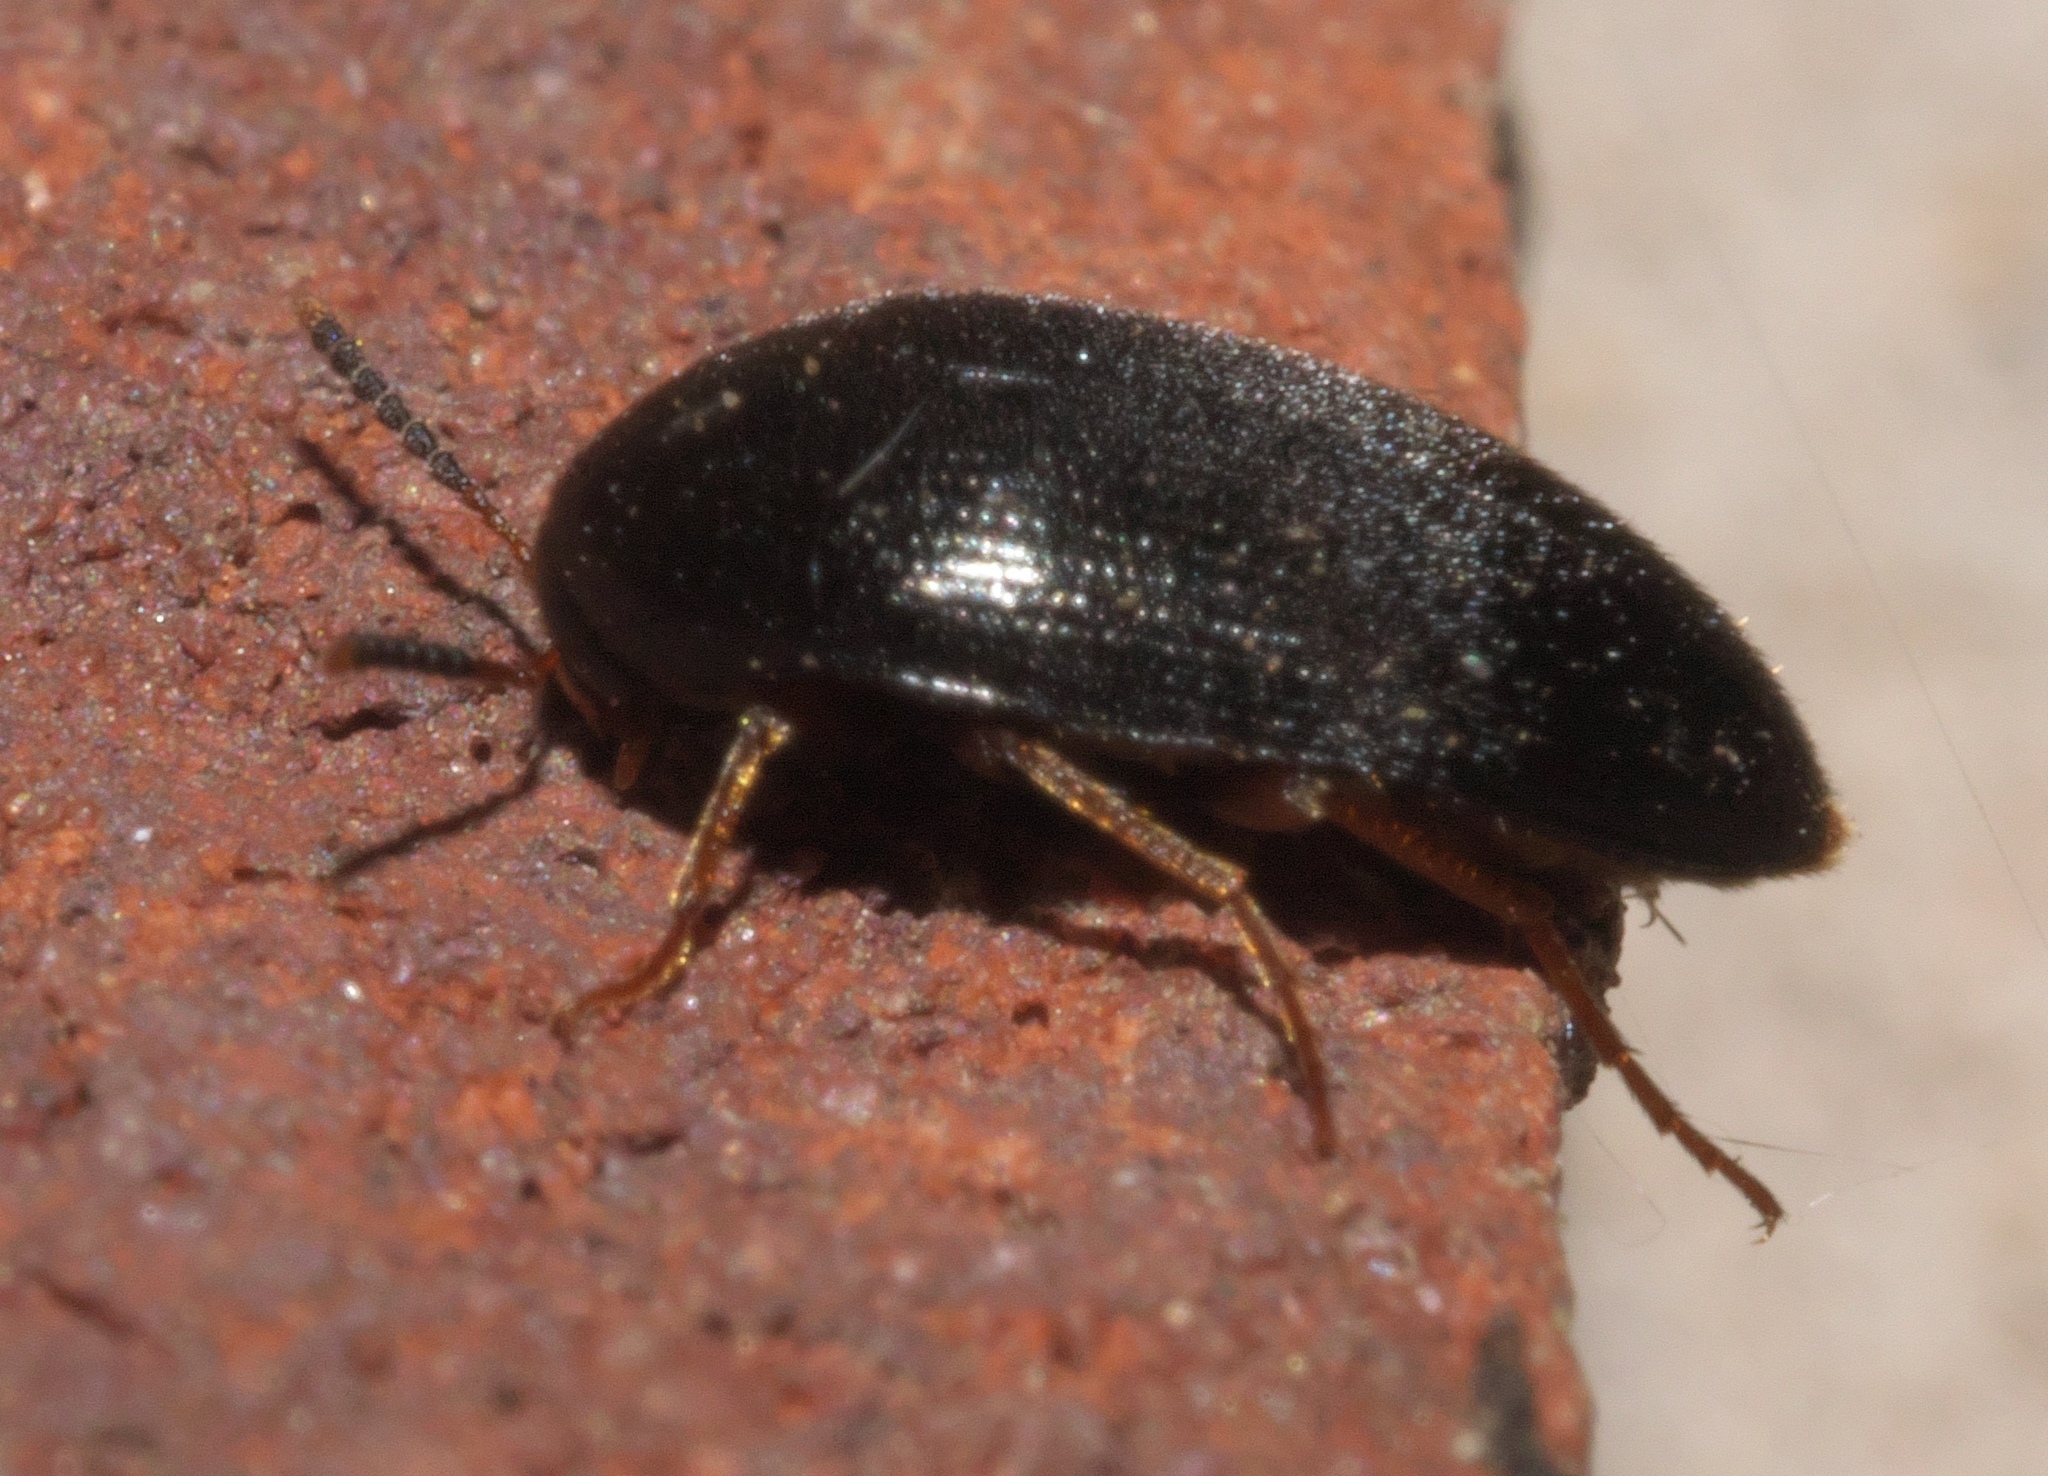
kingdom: Animalia
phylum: Arthropoda
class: Insecta
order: Coleoptera
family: Tetratomidae
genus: Eustrophopsis
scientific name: Eustrophopsis bicolor
